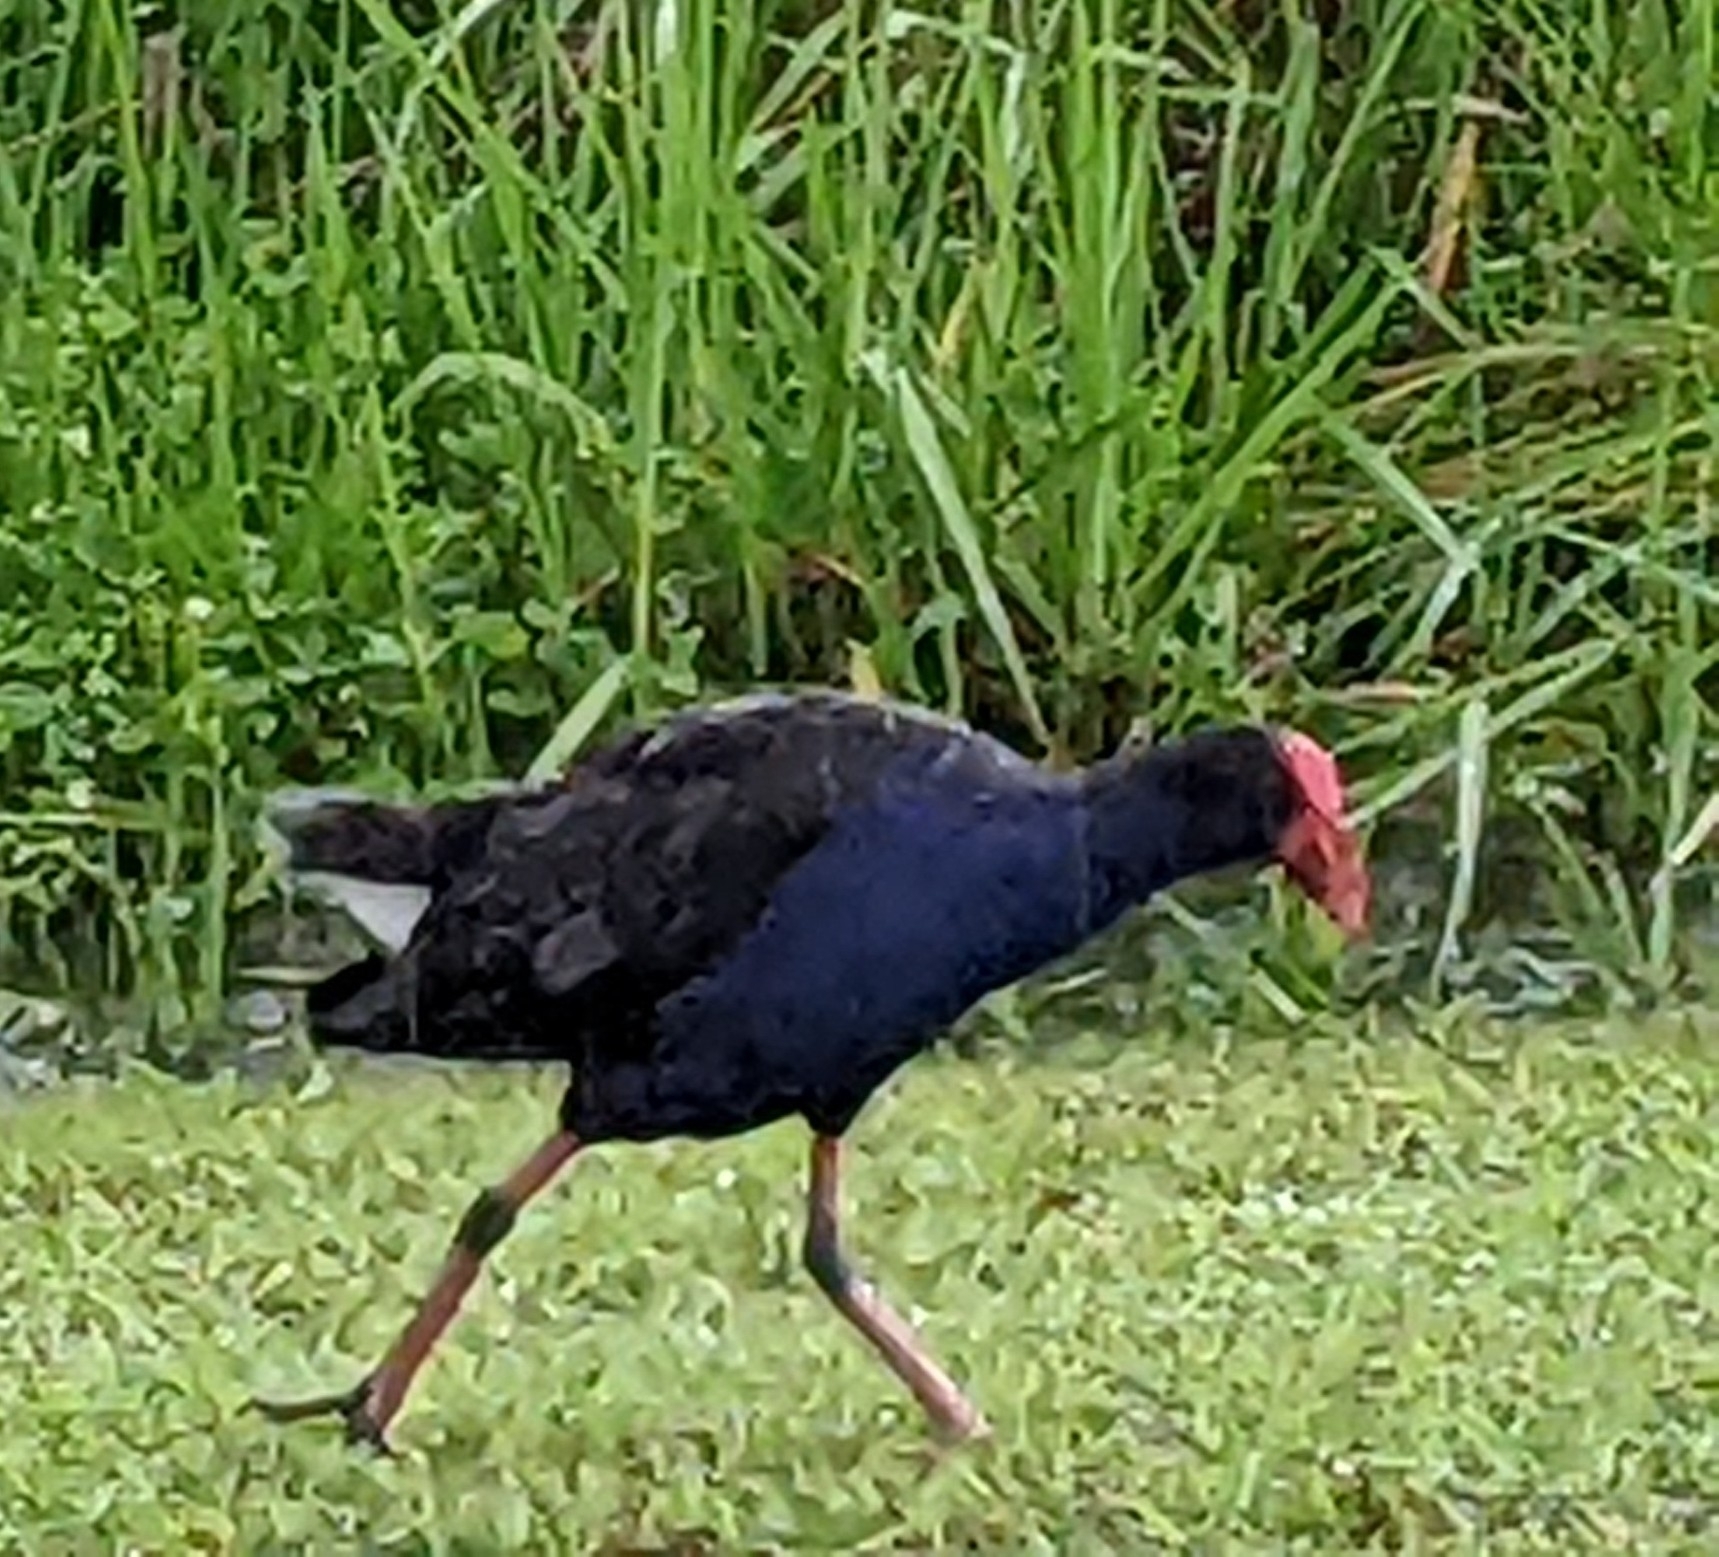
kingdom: Animalia
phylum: Chordata
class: Aves
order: Gruiformes
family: Rallidae
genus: Porphyrio
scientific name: Porphyrio melanotus
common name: Australasian swamphen
